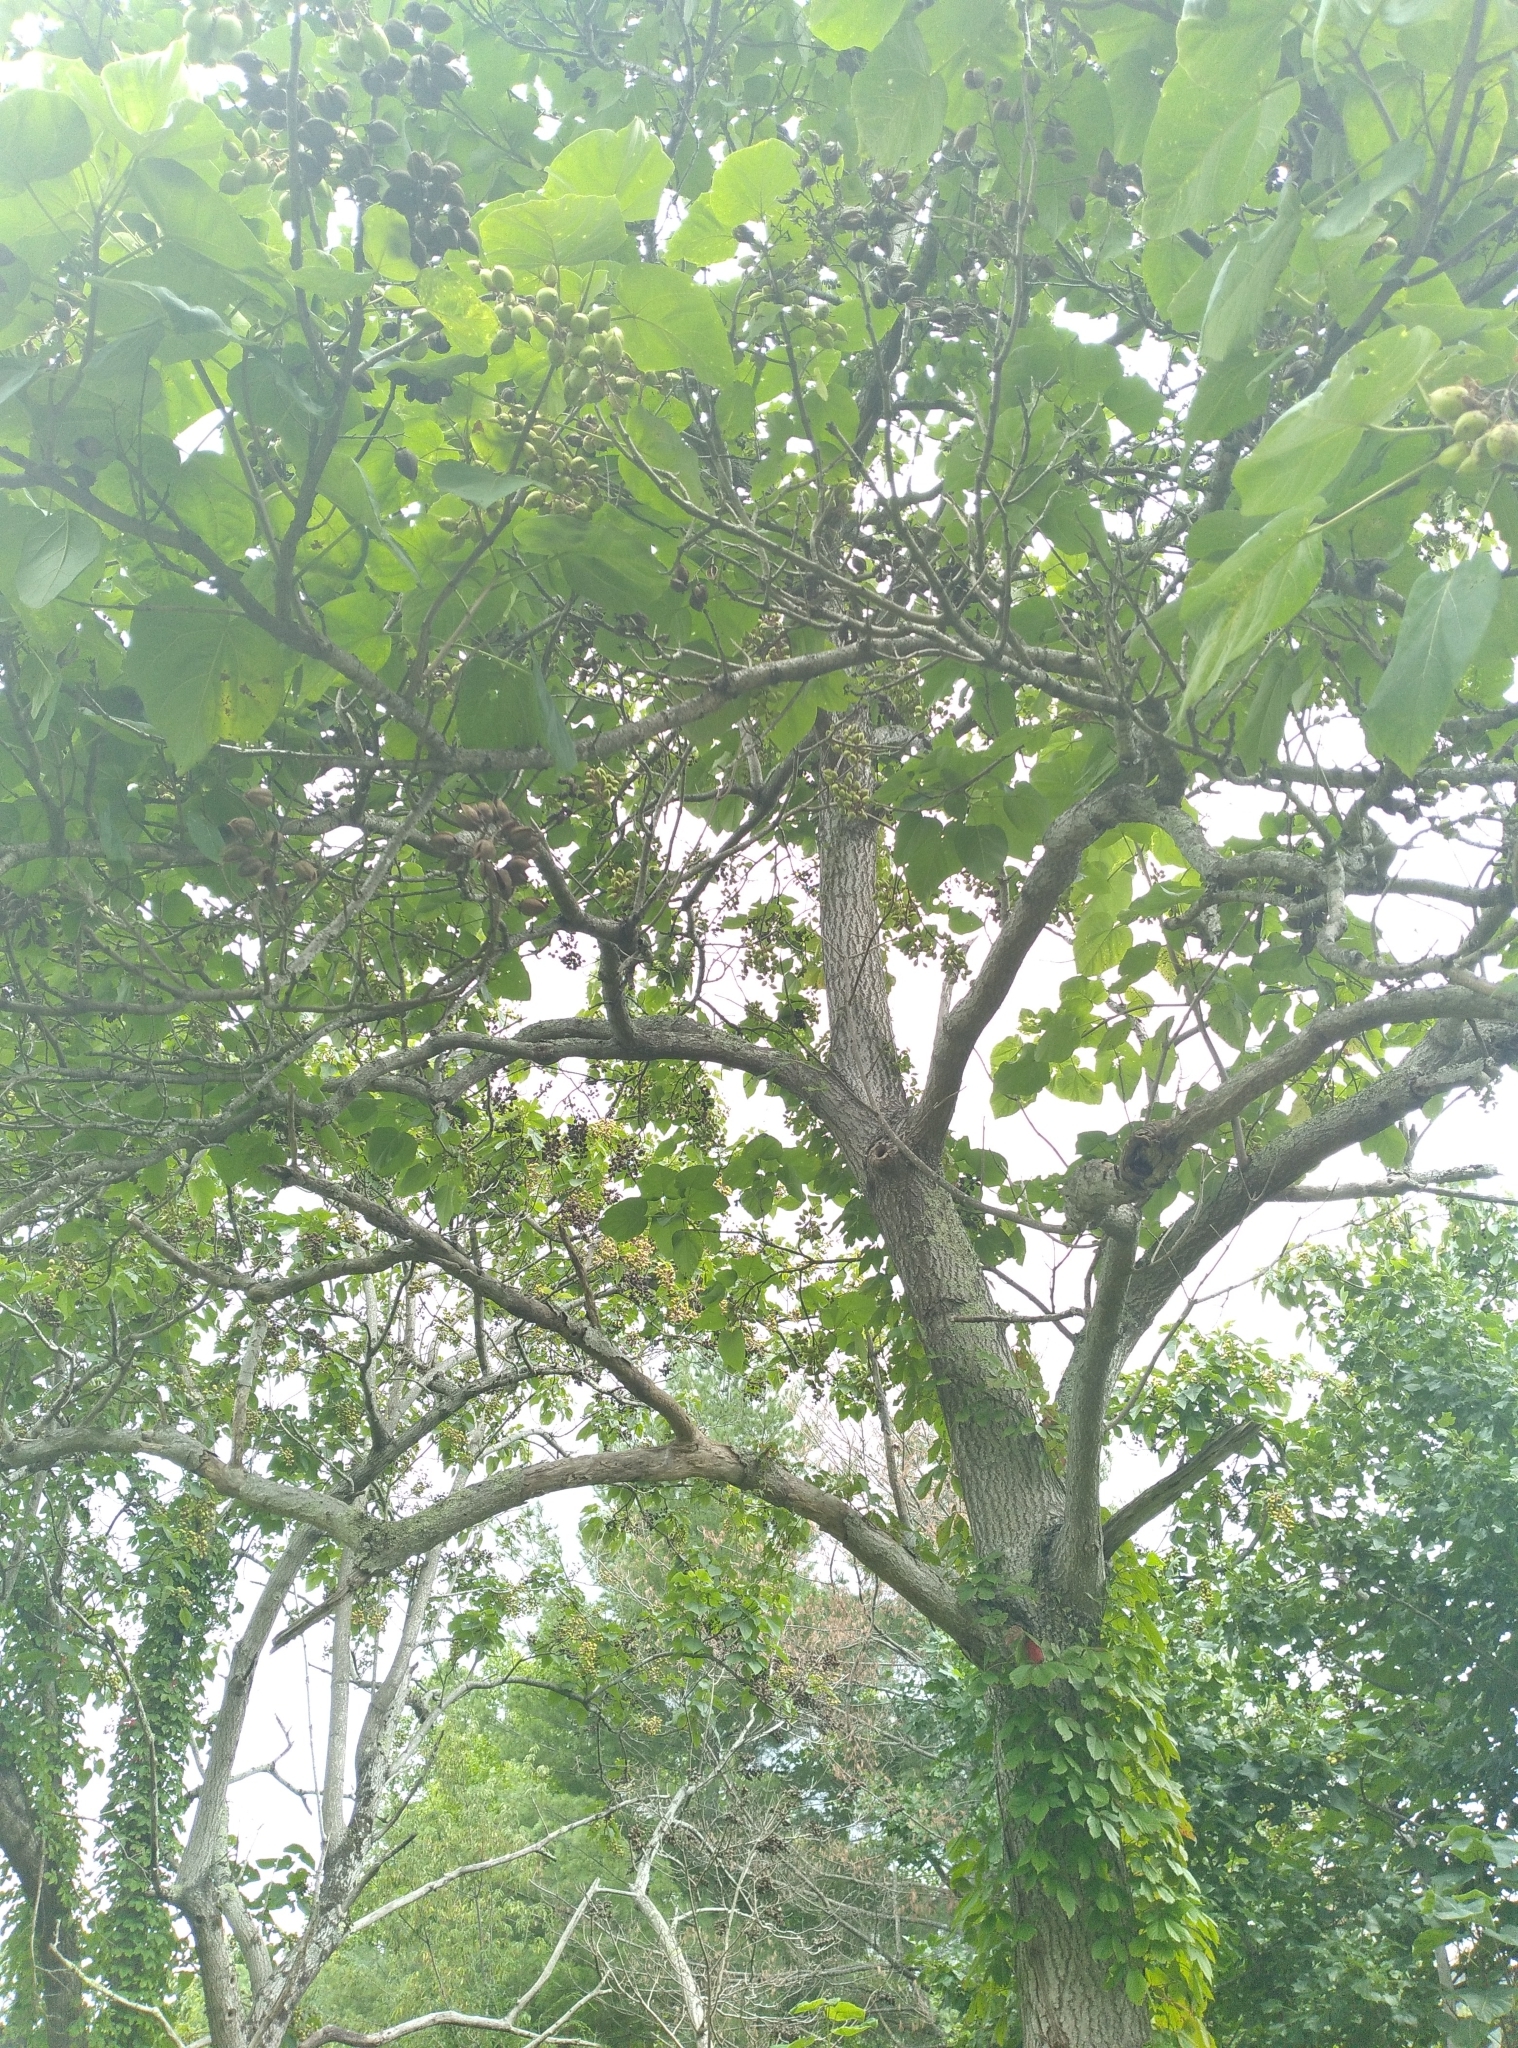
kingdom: Plantae
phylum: Tracheophyta
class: Magnoliopsida
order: Lamiales
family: Paulowniaceae
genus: Paulownia
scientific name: Paulownia tomentosa
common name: Foxglove-tree
